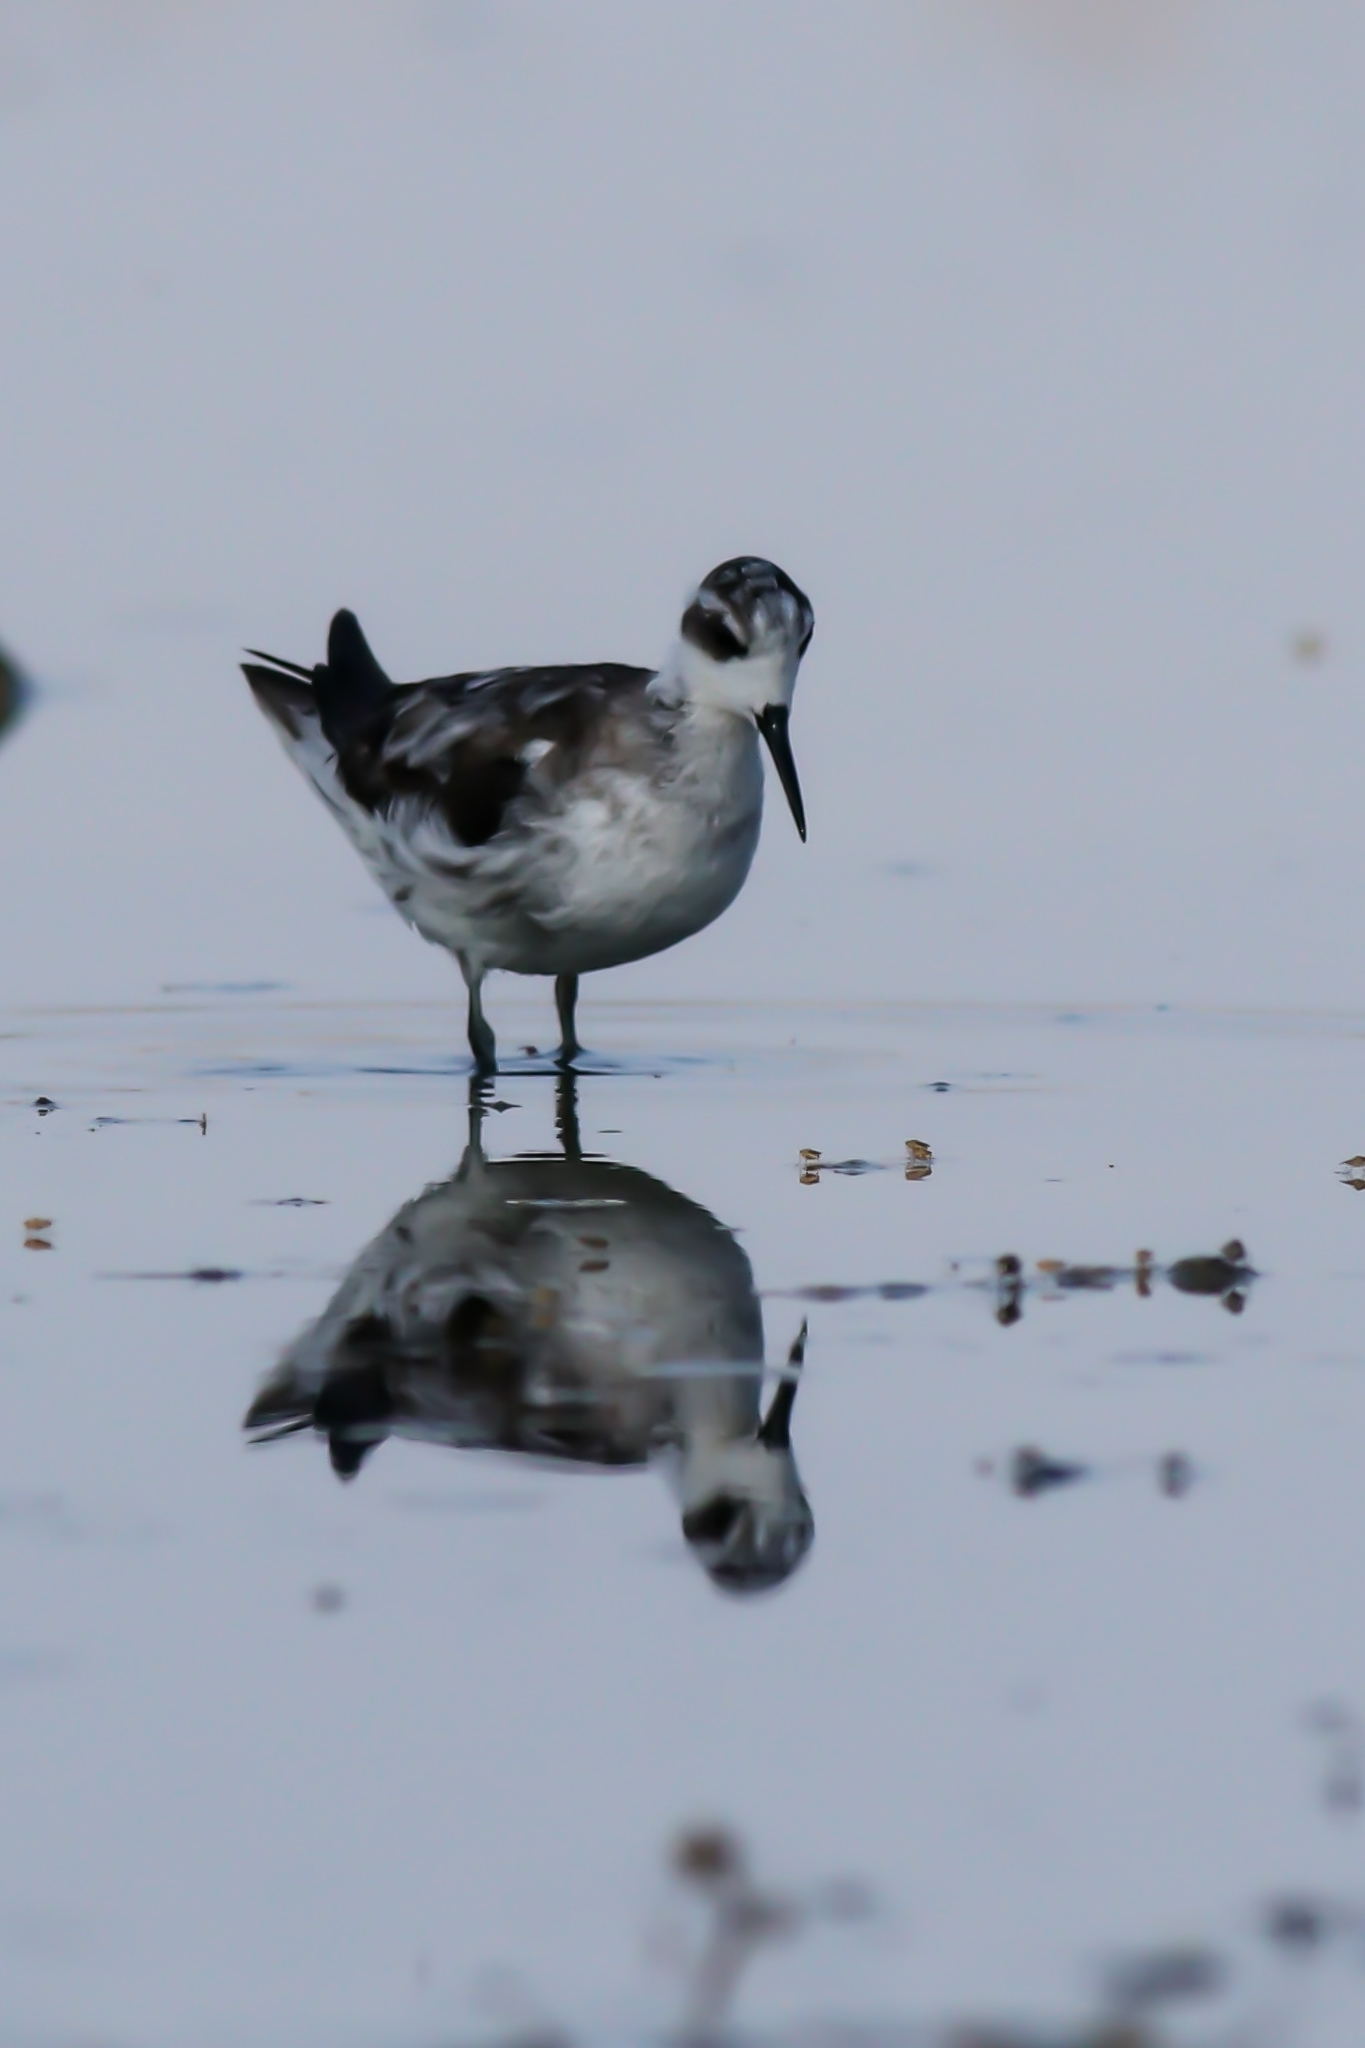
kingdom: Animalia
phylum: Chordata
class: Aves
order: Charadriiformes
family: Scolopacidae
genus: Phalaropus
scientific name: Phalaropus lobatus
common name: Red-necked phalarope
